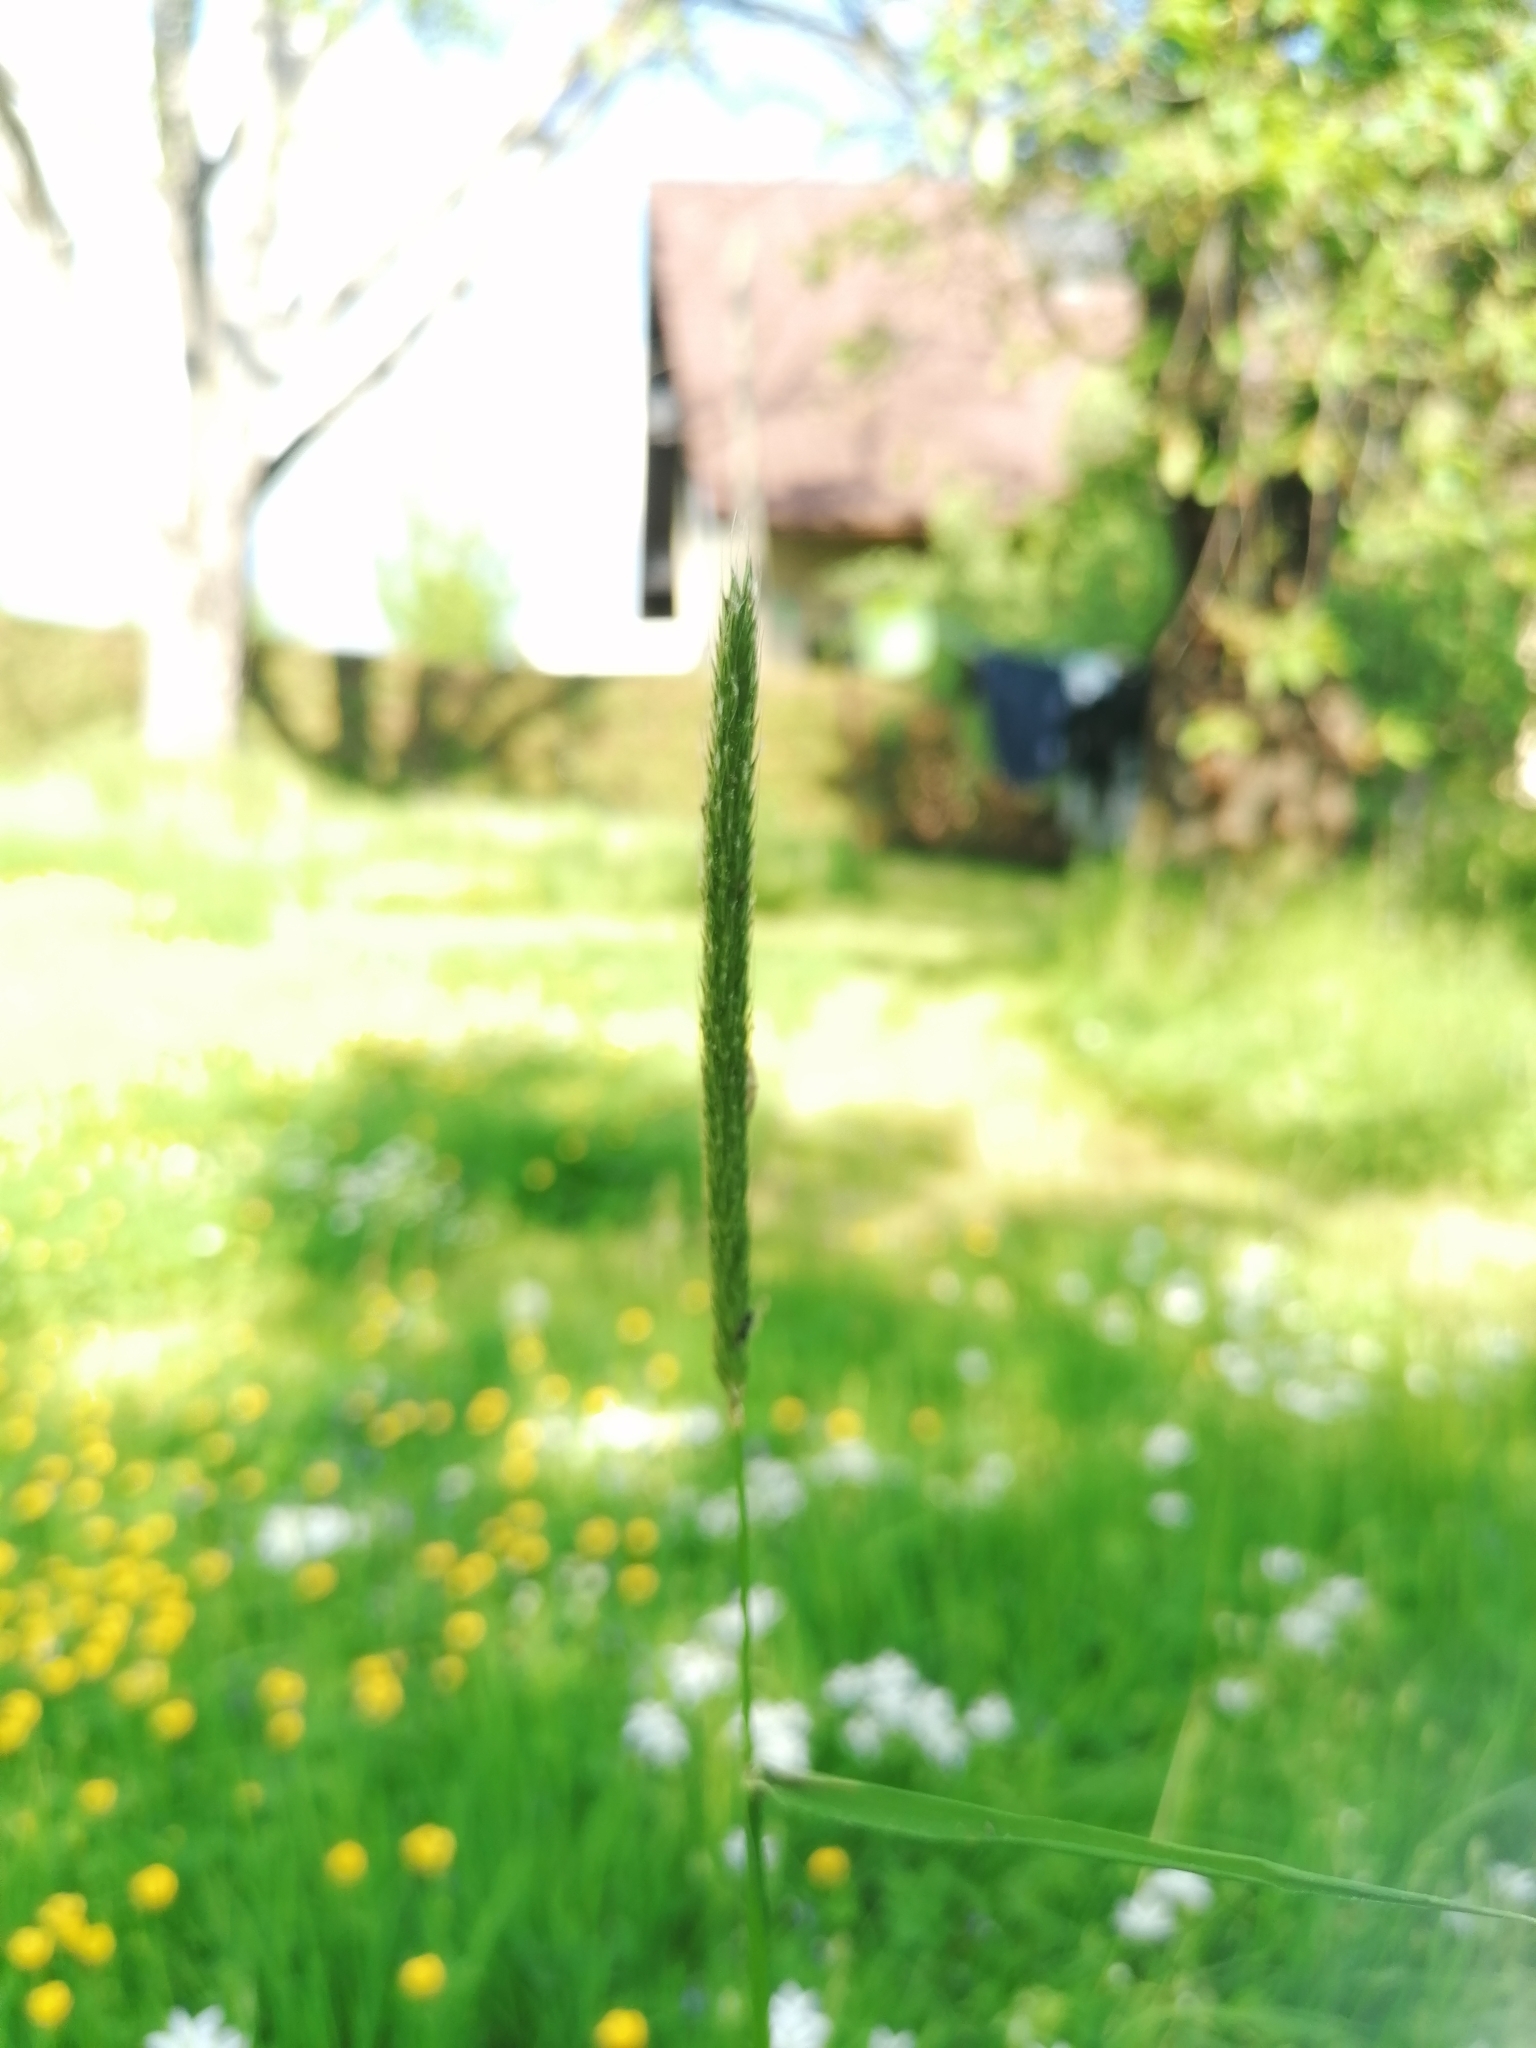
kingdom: Plantae
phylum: Tracheophyta
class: Liliopsida
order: Poales
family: Poaceae
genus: Alopecurus
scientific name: Alopecurus pratensis
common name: Meadow foxtail
